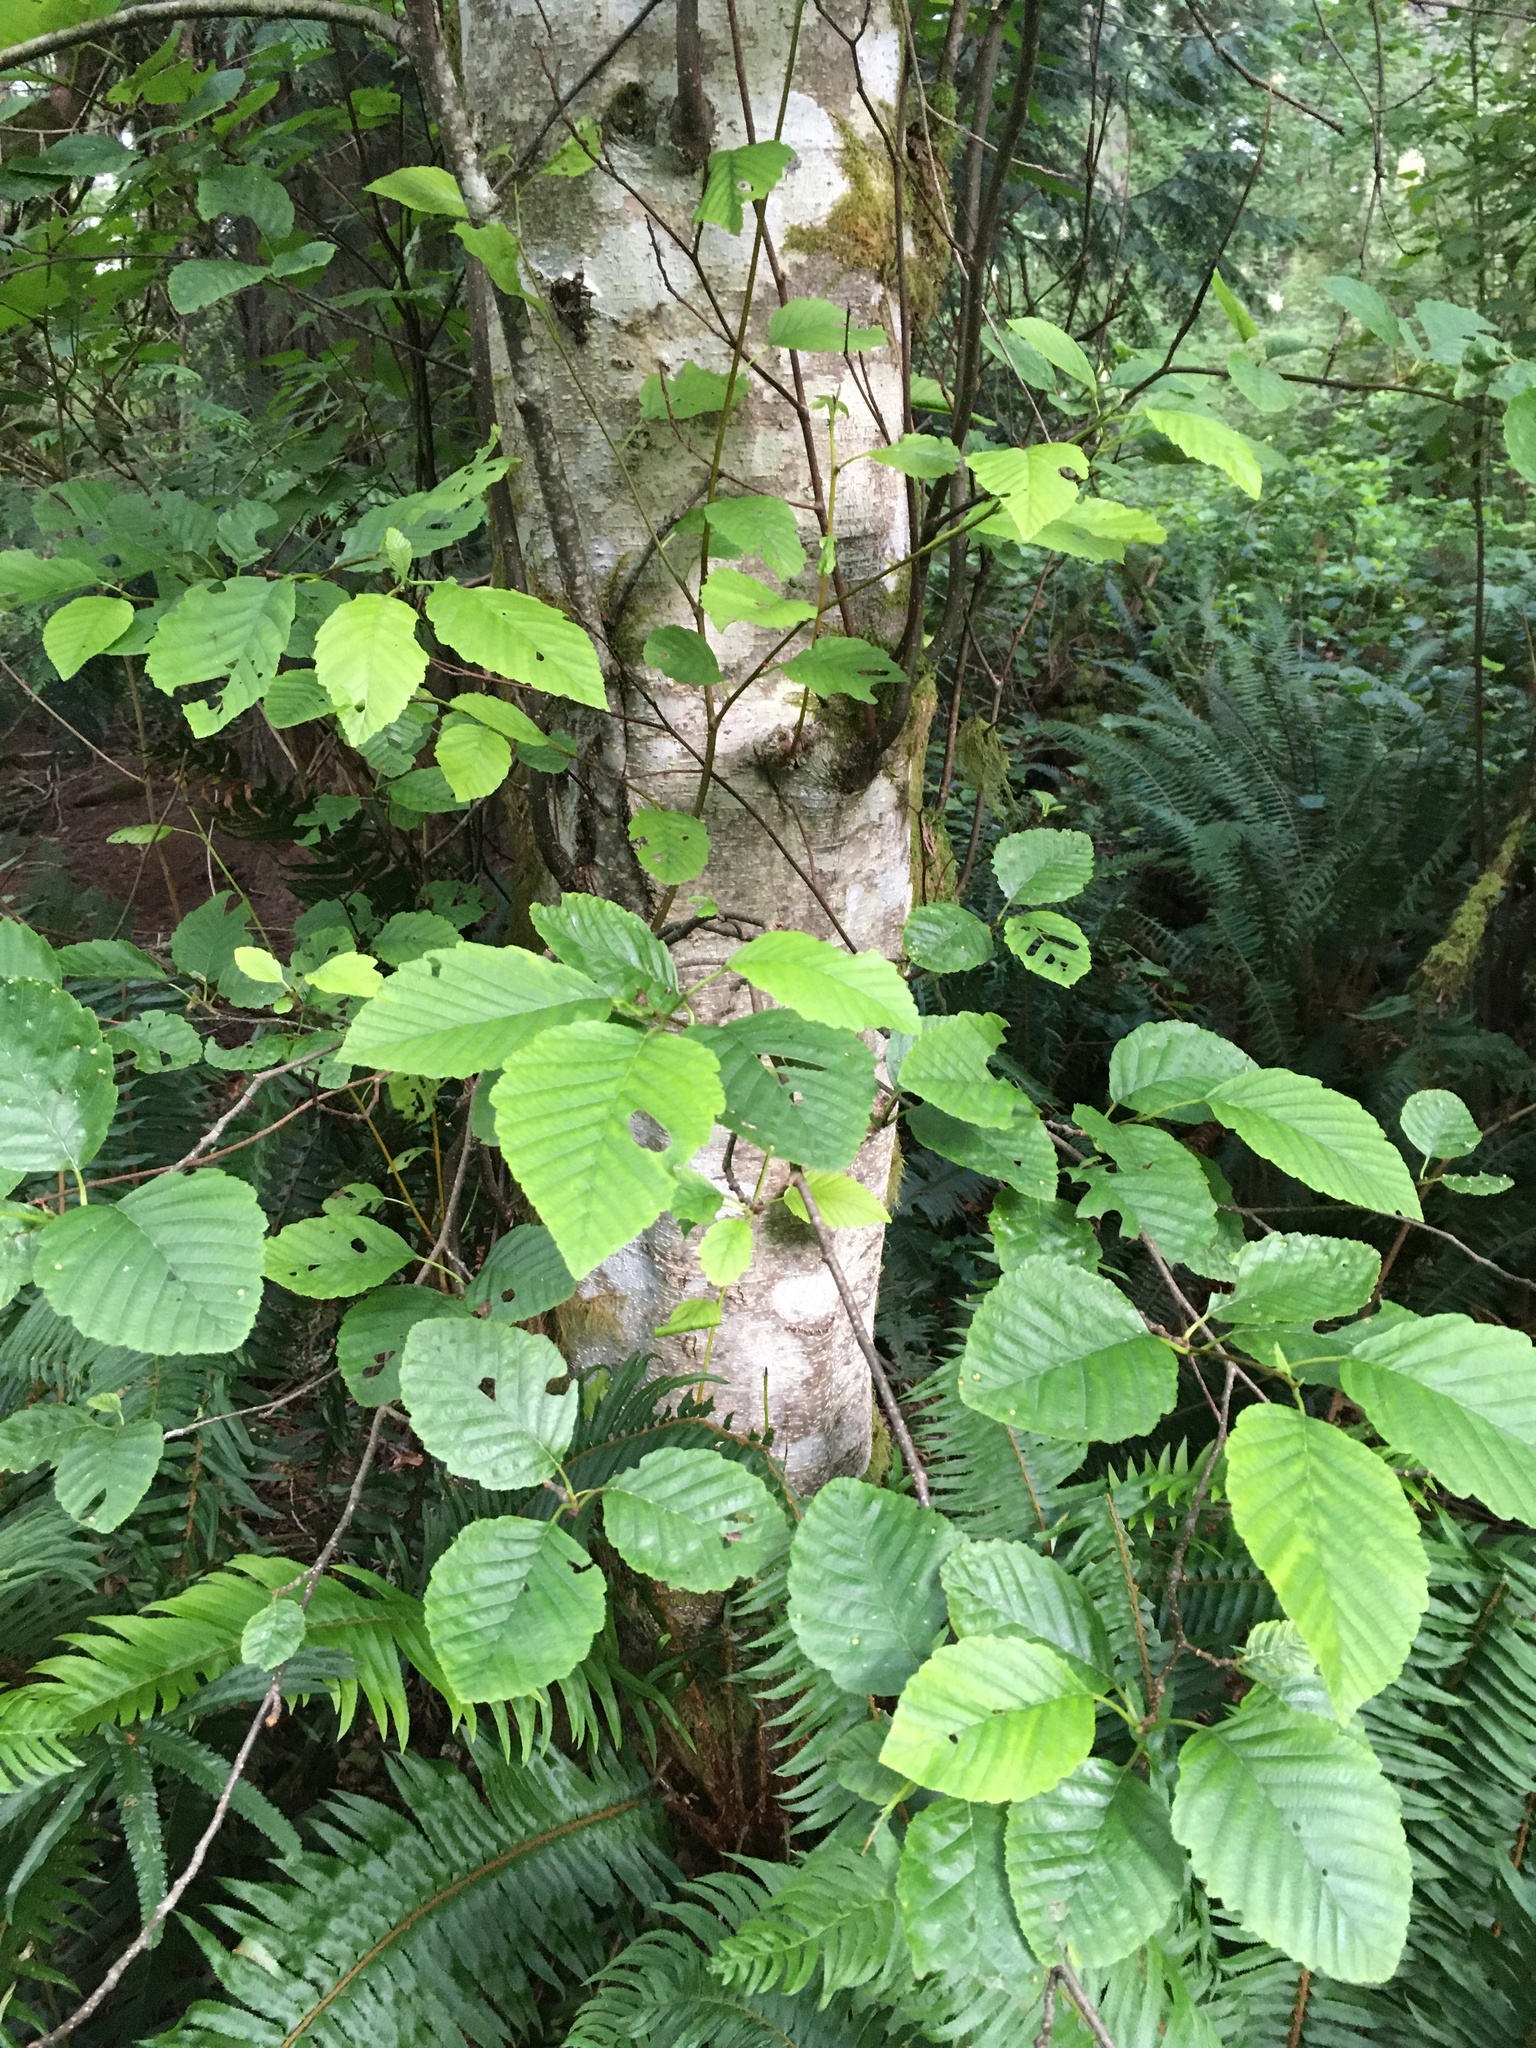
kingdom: Plantae
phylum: Tracheophyta
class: Magnoliopsida
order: Fagales
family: Betulaceae
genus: Alnus
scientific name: Alnus rubra
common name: Red alder
